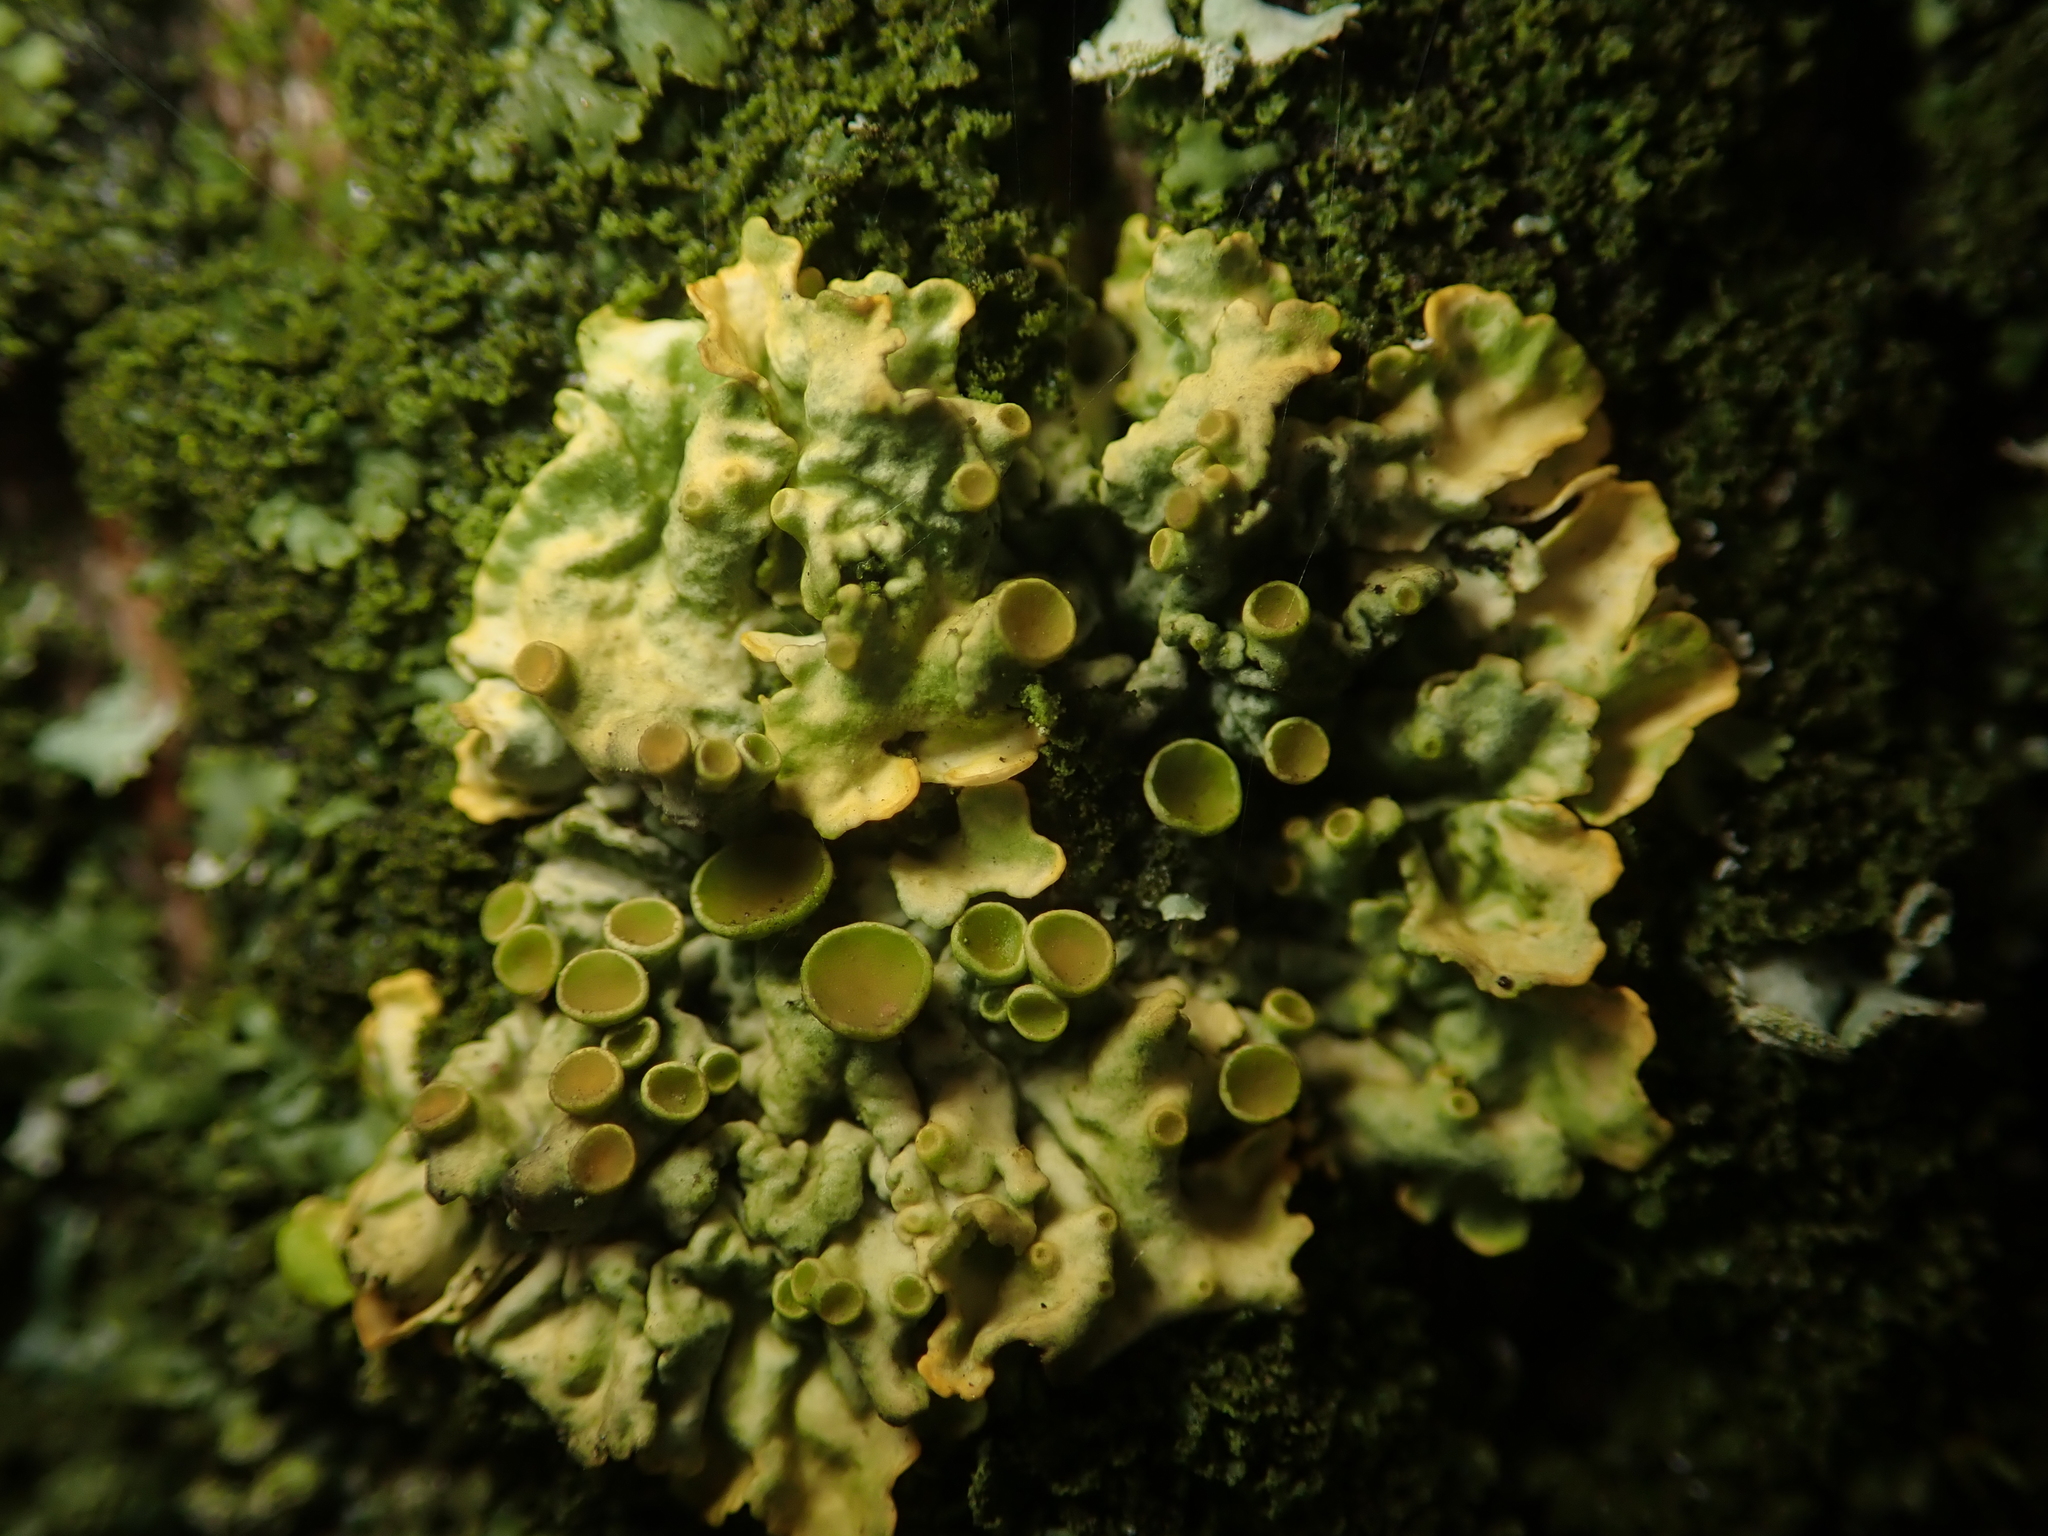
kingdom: Fungi
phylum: Ascomycota
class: Lecanoromycetes
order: Teloschistales
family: Teloschistaceae
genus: Xanthoria
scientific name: Xanthoria parietina
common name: Common orange lichen
